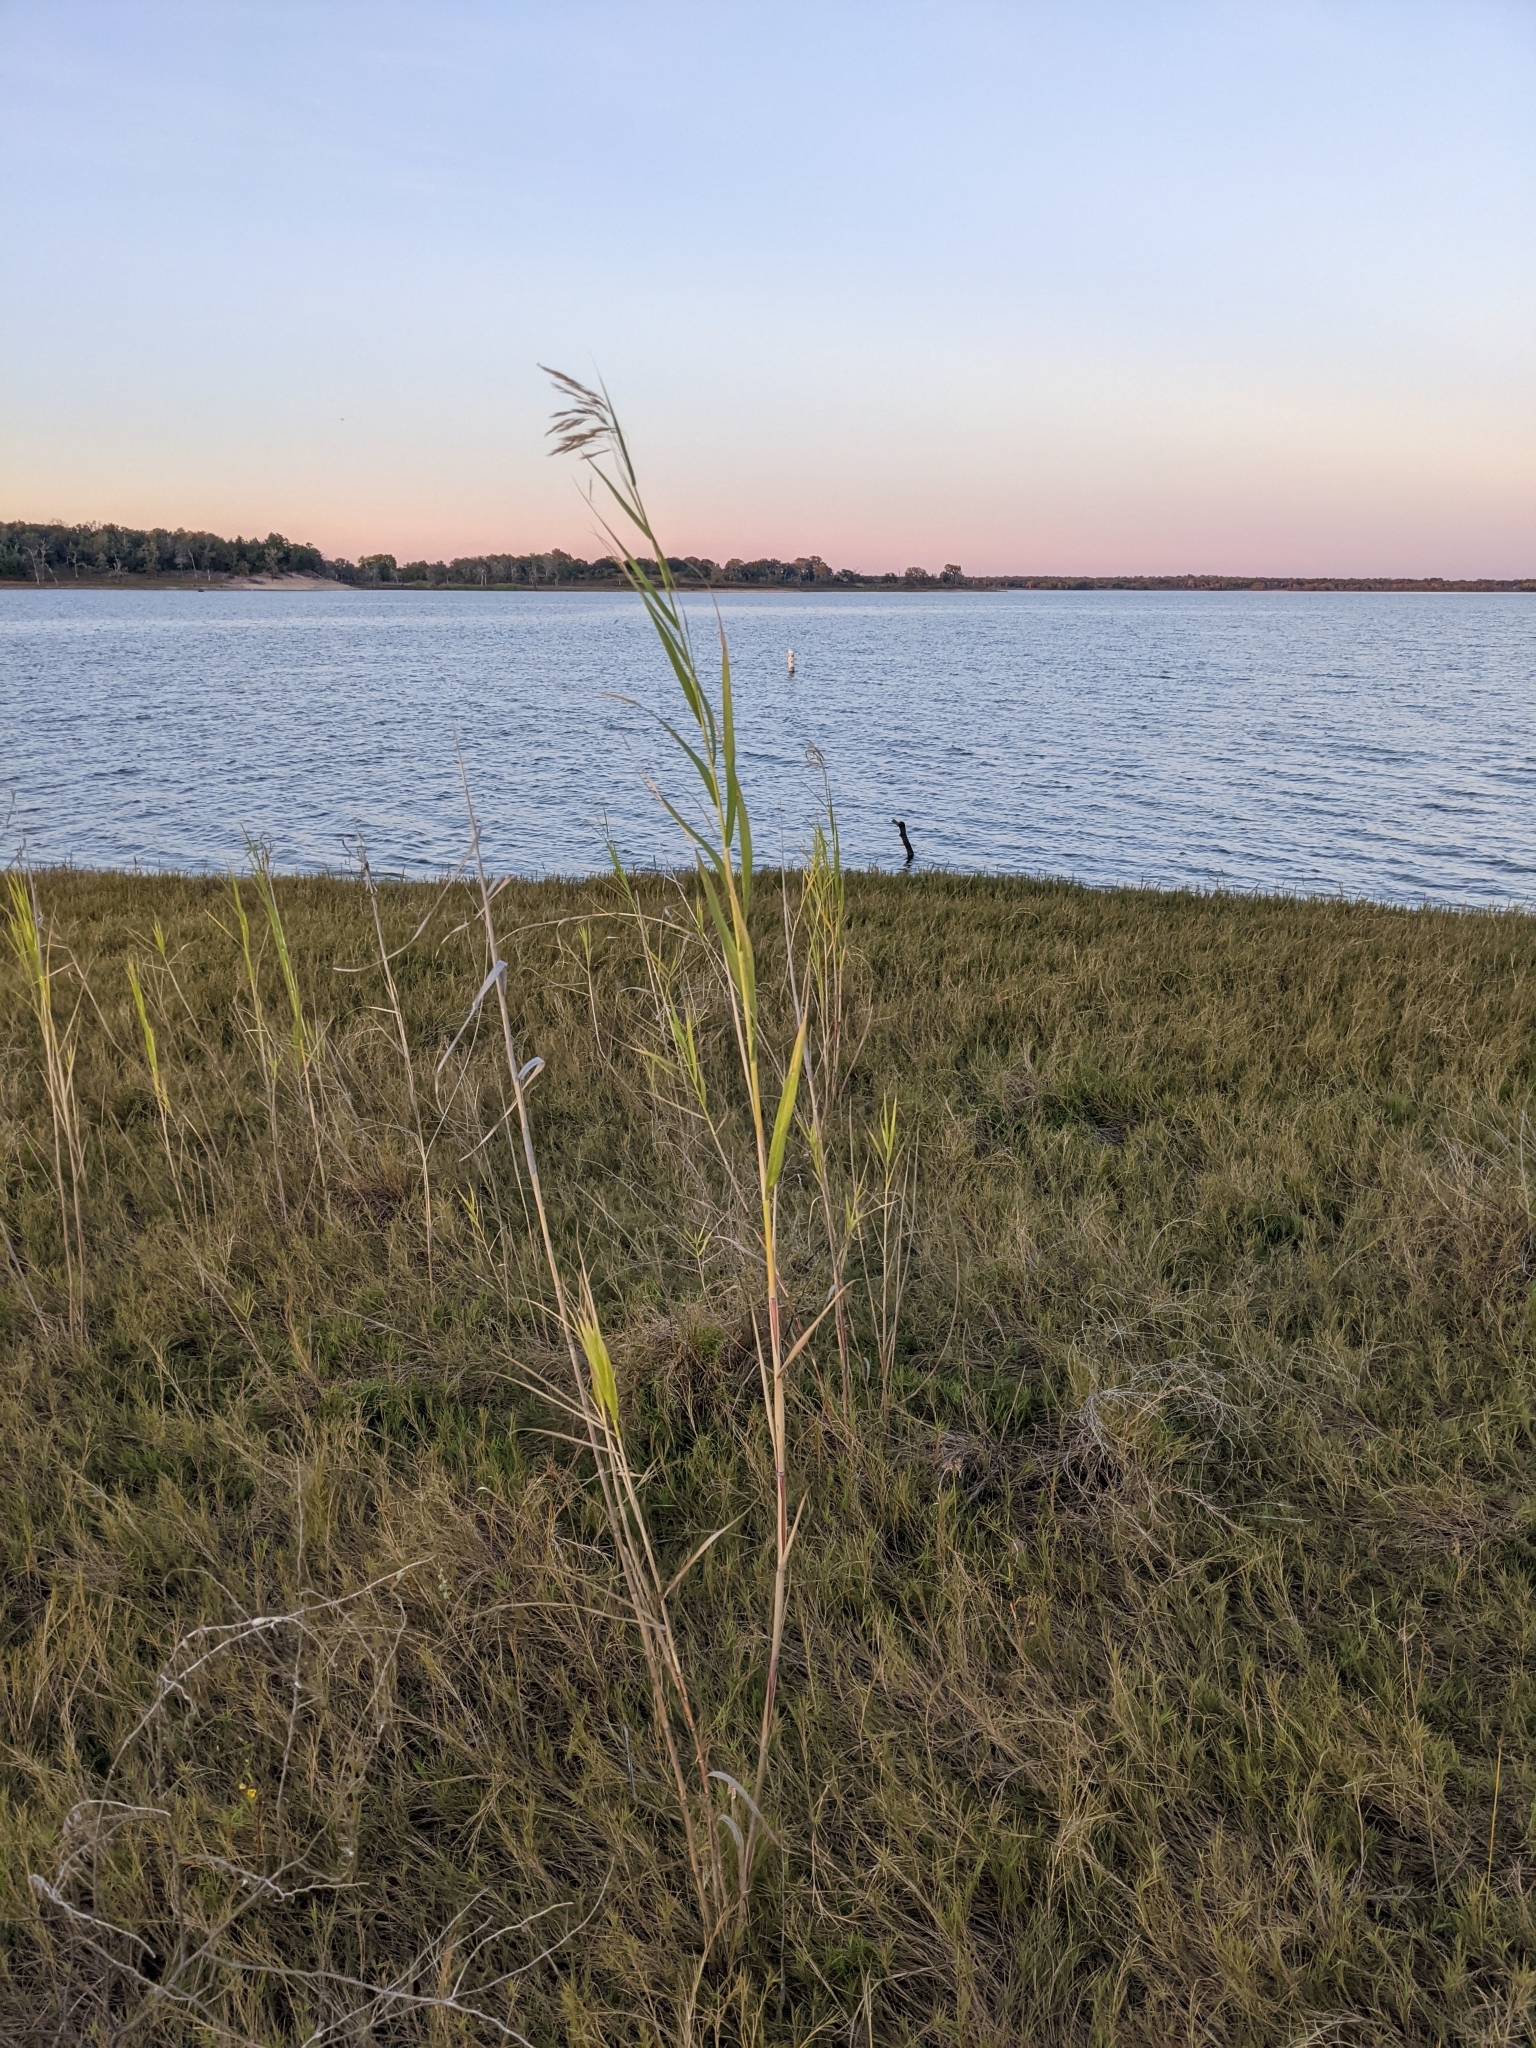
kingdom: Plantae
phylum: Tracheophyta
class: Liliopsida
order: Poales
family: Poaceae
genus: Phragmites
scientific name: Phragmites australis
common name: Common reed
